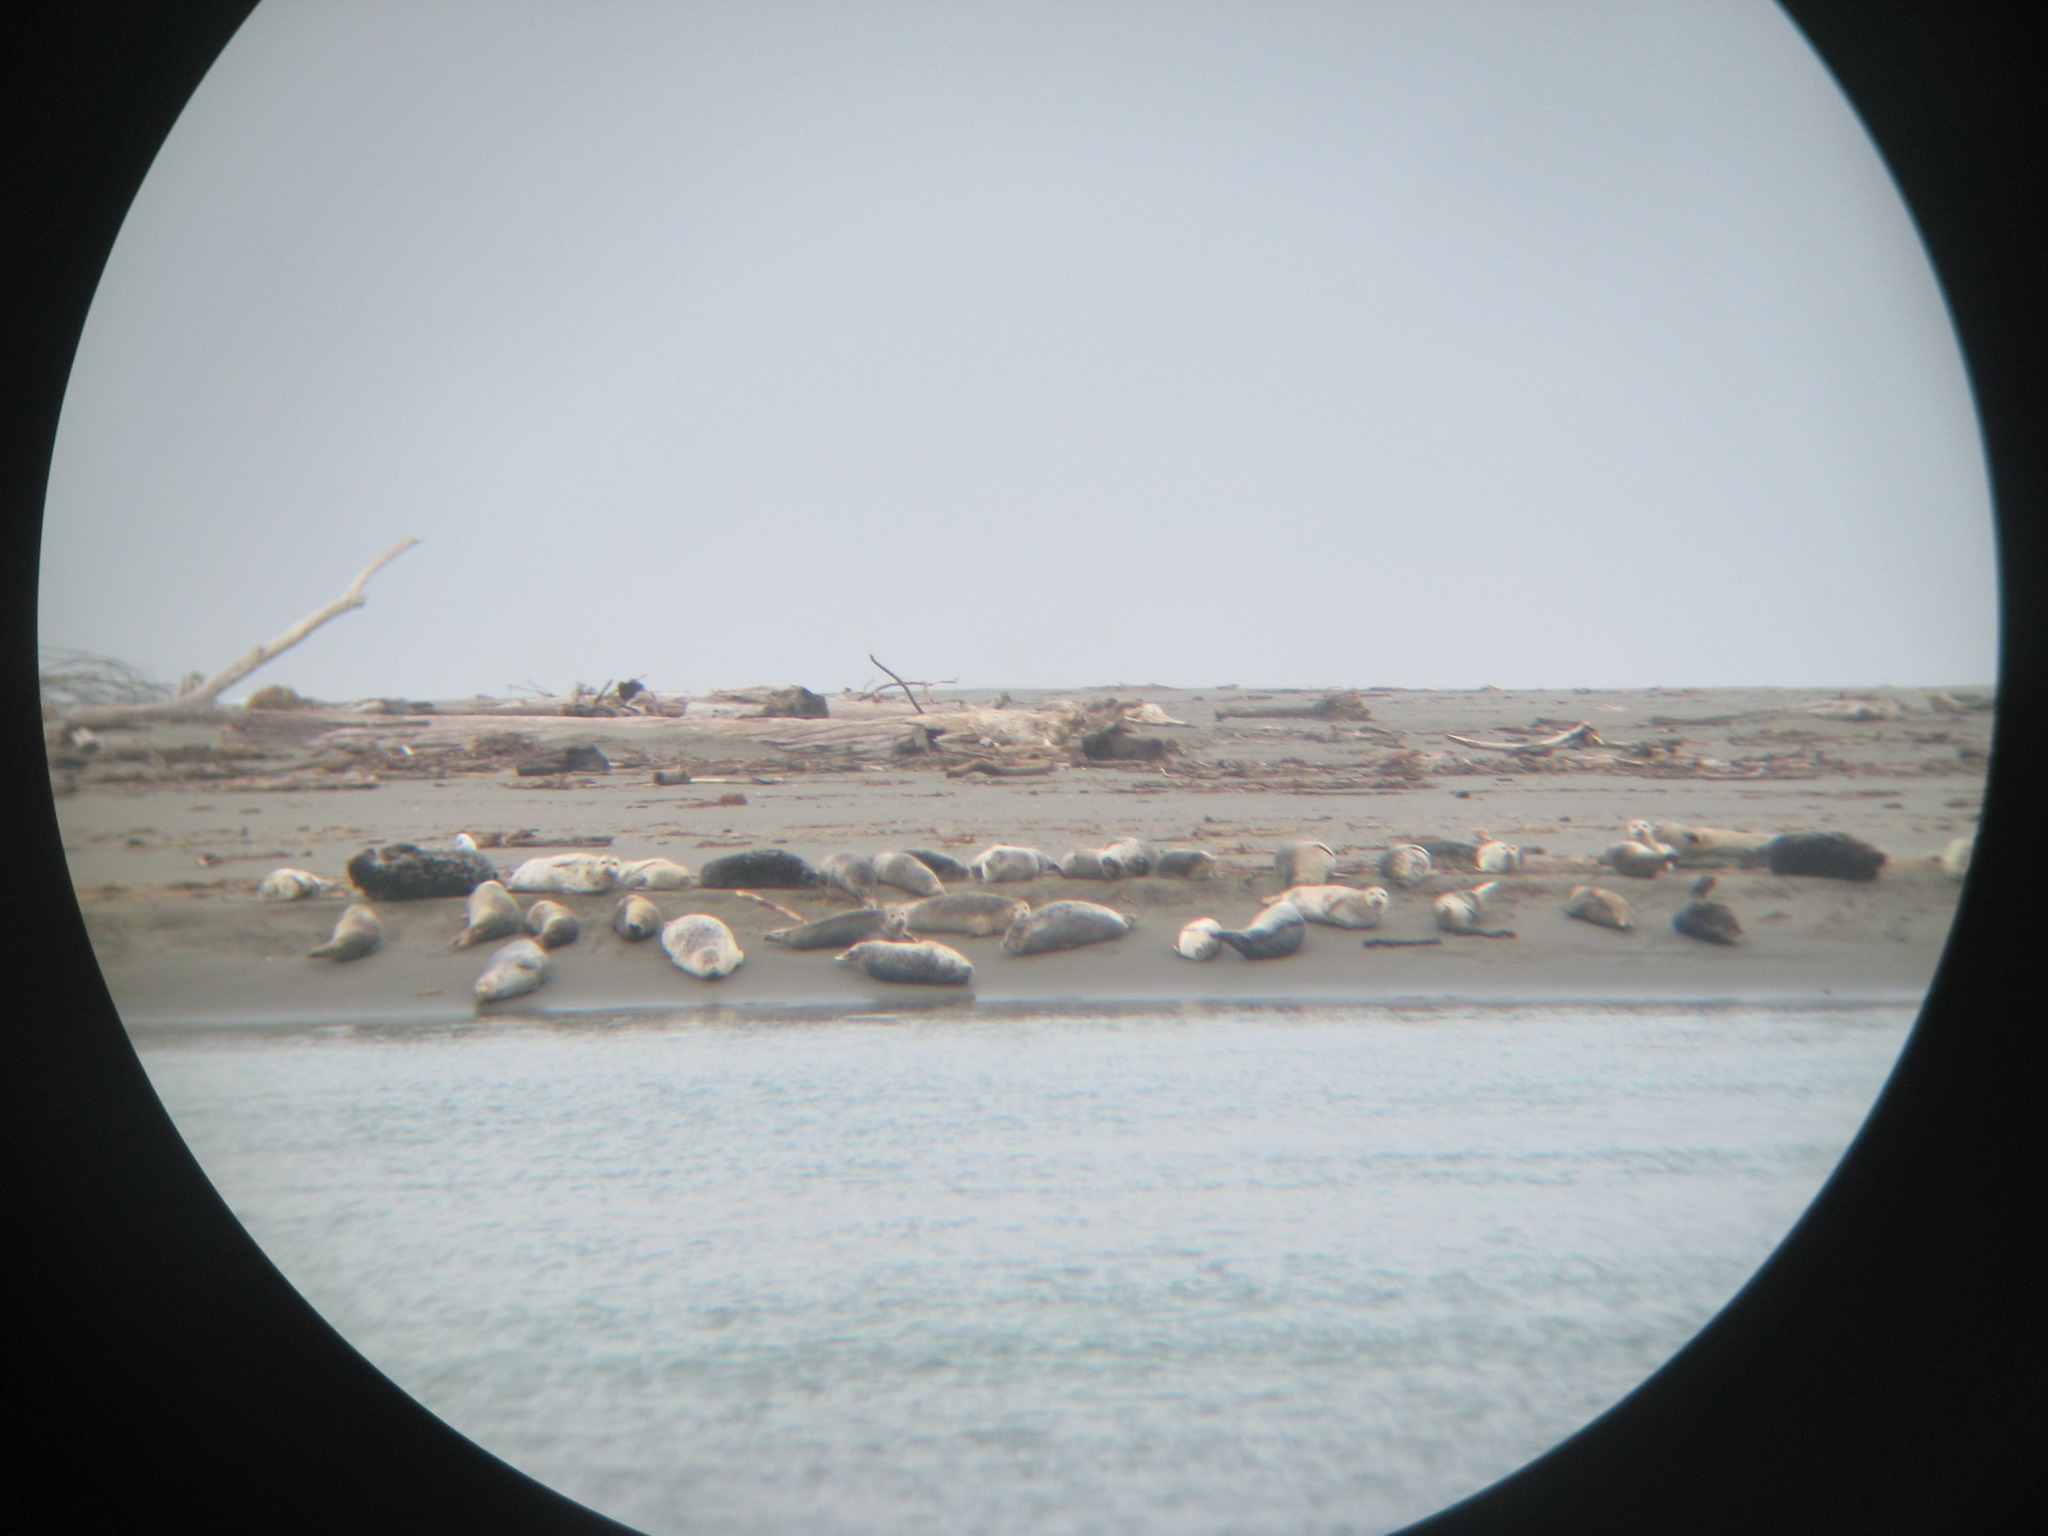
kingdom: Animalia
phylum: Chordata
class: Mammalia
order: Carnivora
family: Phocidae
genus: Phoca
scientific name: Phoca vitulina
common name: Harbor seal
